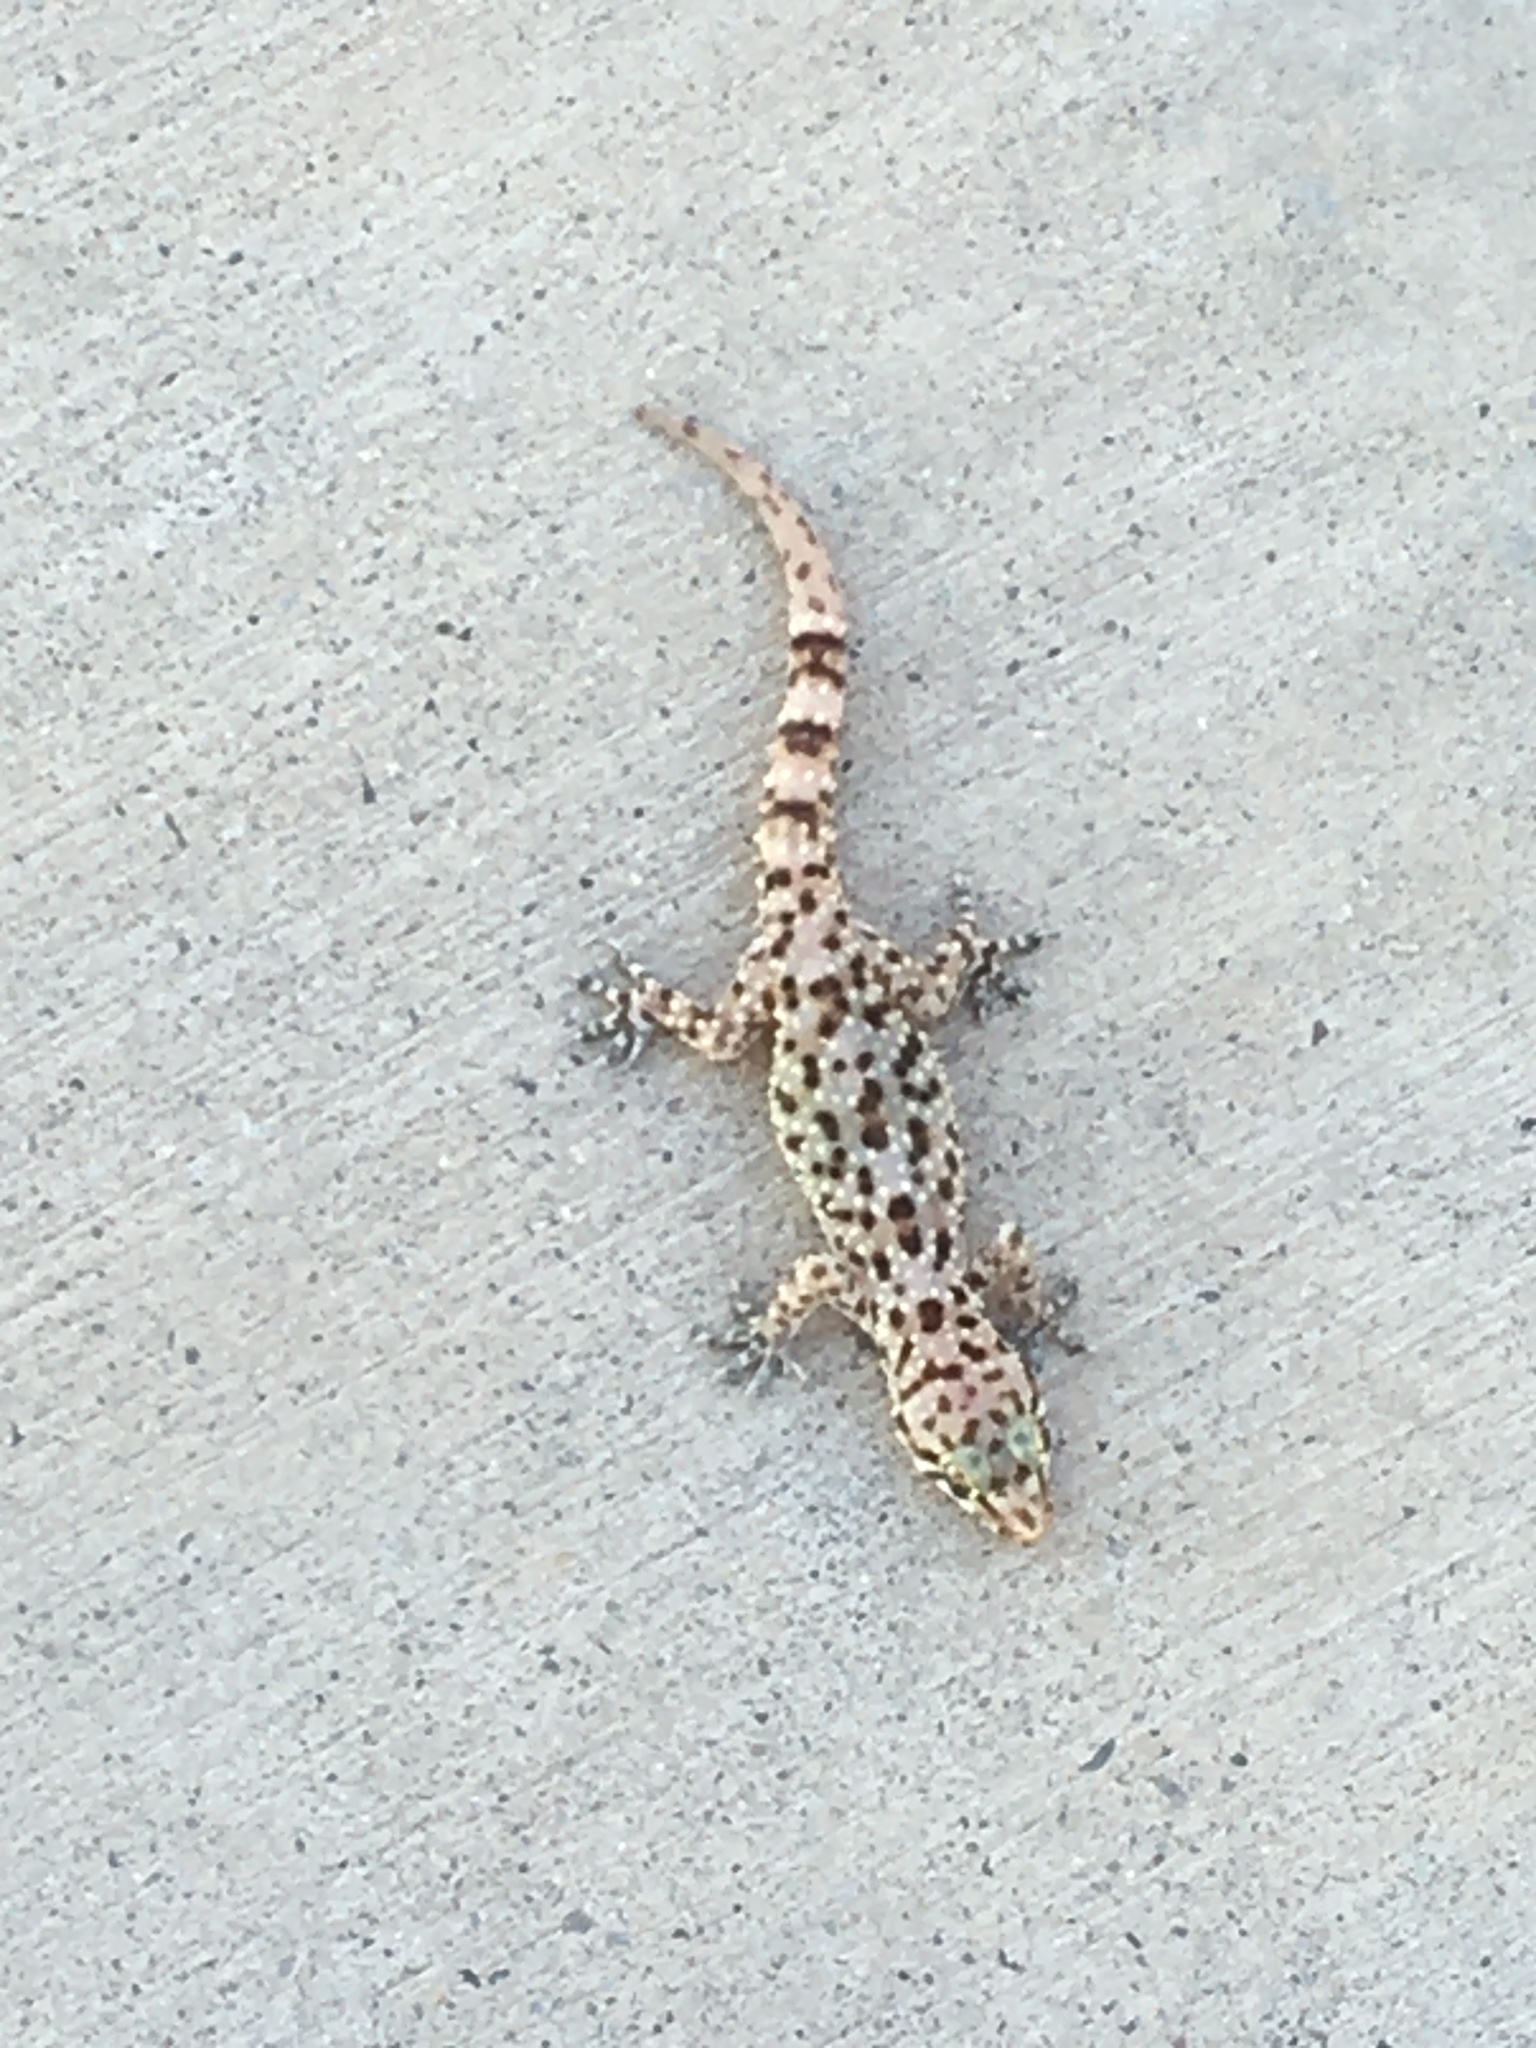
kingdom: Animalia
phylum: Chordata
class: Squamata
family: Gekkonidae
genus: Hemidactylus
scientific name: Hemidactylus turcicus
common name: Turkish gecko
